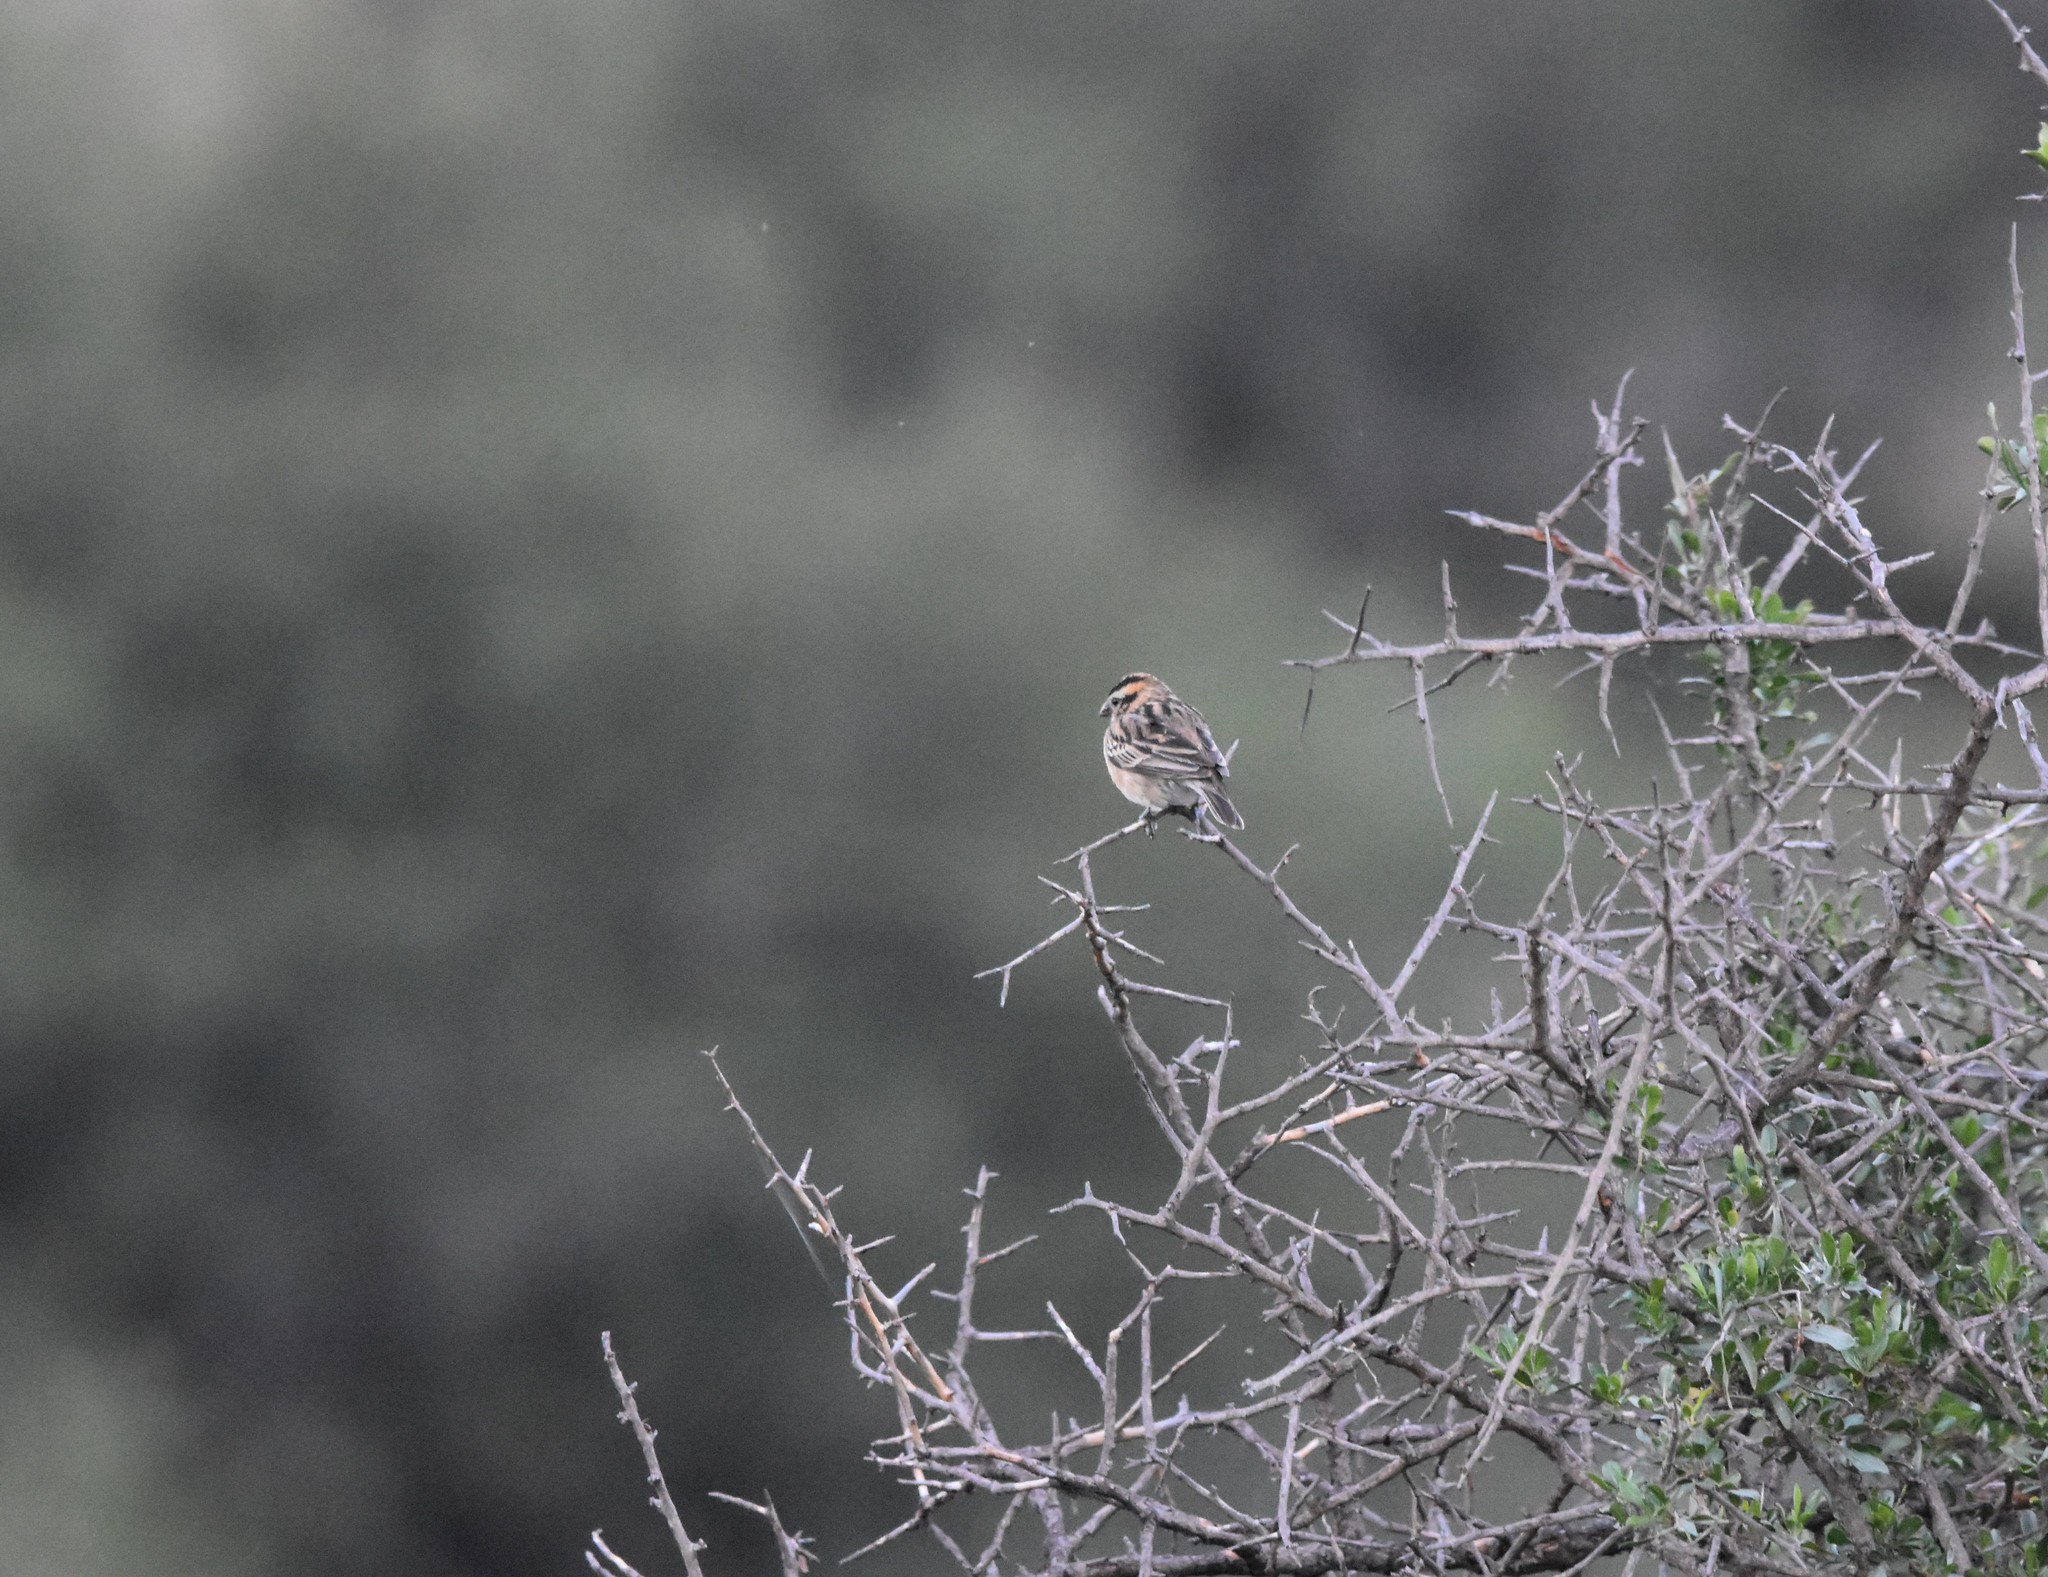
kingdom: Animalia
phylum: Chordata
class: Aves
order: Passeriformes
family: Viduidae
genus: Vidua
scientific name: Vidua macroura
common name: Pin-tailed whydah
